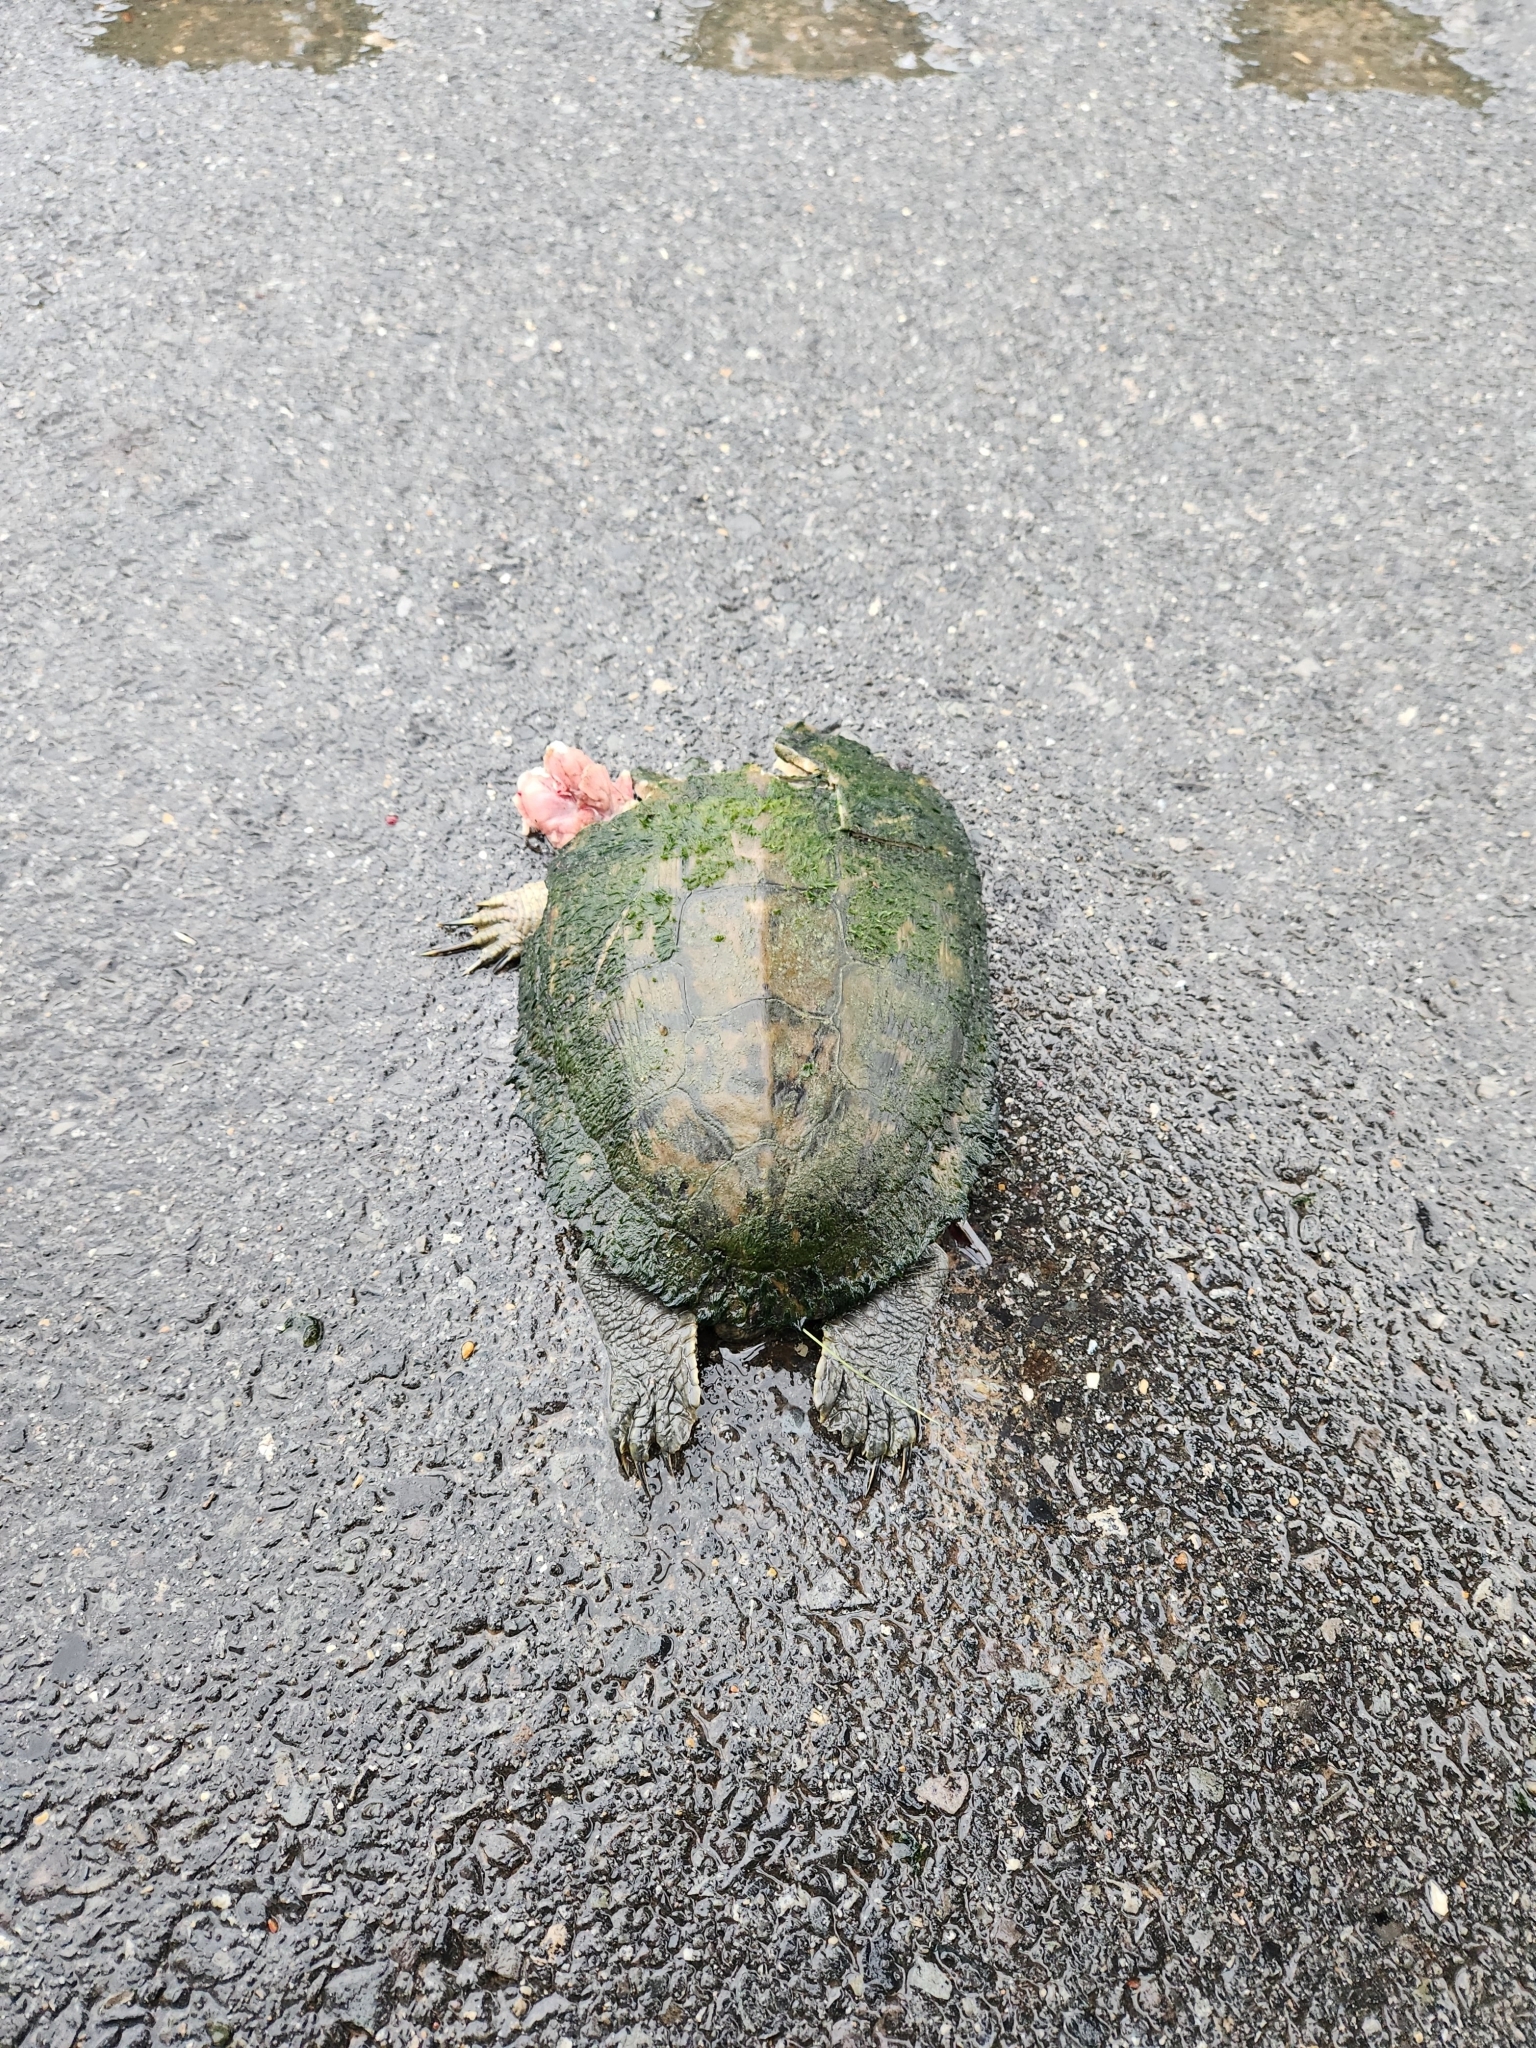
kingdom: Animalia
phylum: Chordata
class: Testudines
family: Emydidae
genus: Trachemys
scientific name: Trachemys scripta
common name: Slider
